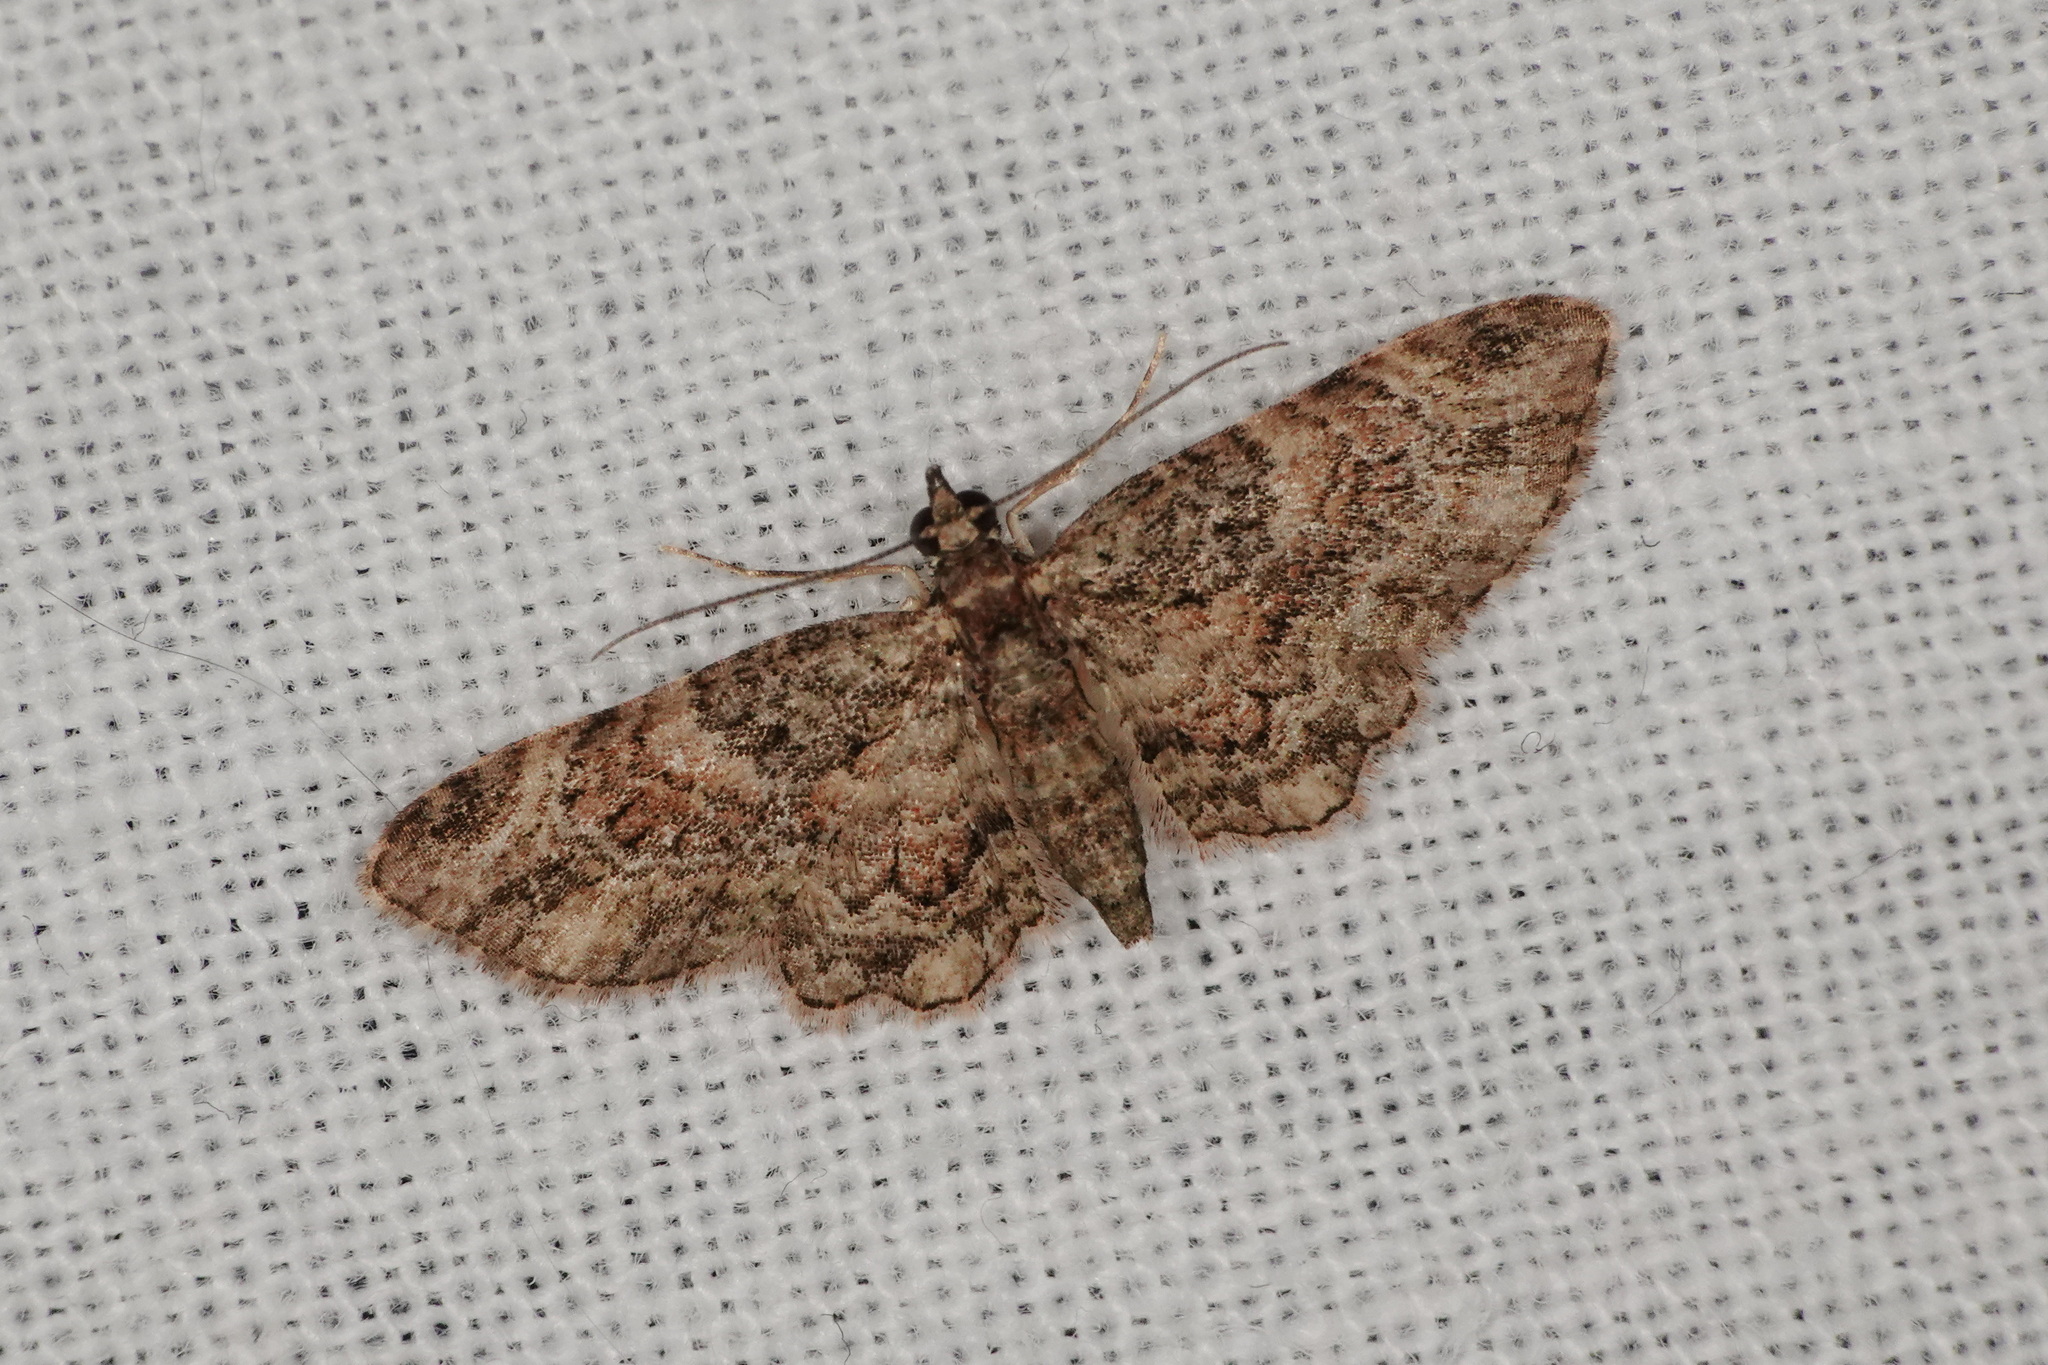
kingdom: Animalia
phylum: Arthropoda
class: Insecta
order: Lepidoptera
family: Geometridae
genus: Chloroclystis
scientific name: Chloroclystis catastreptes
